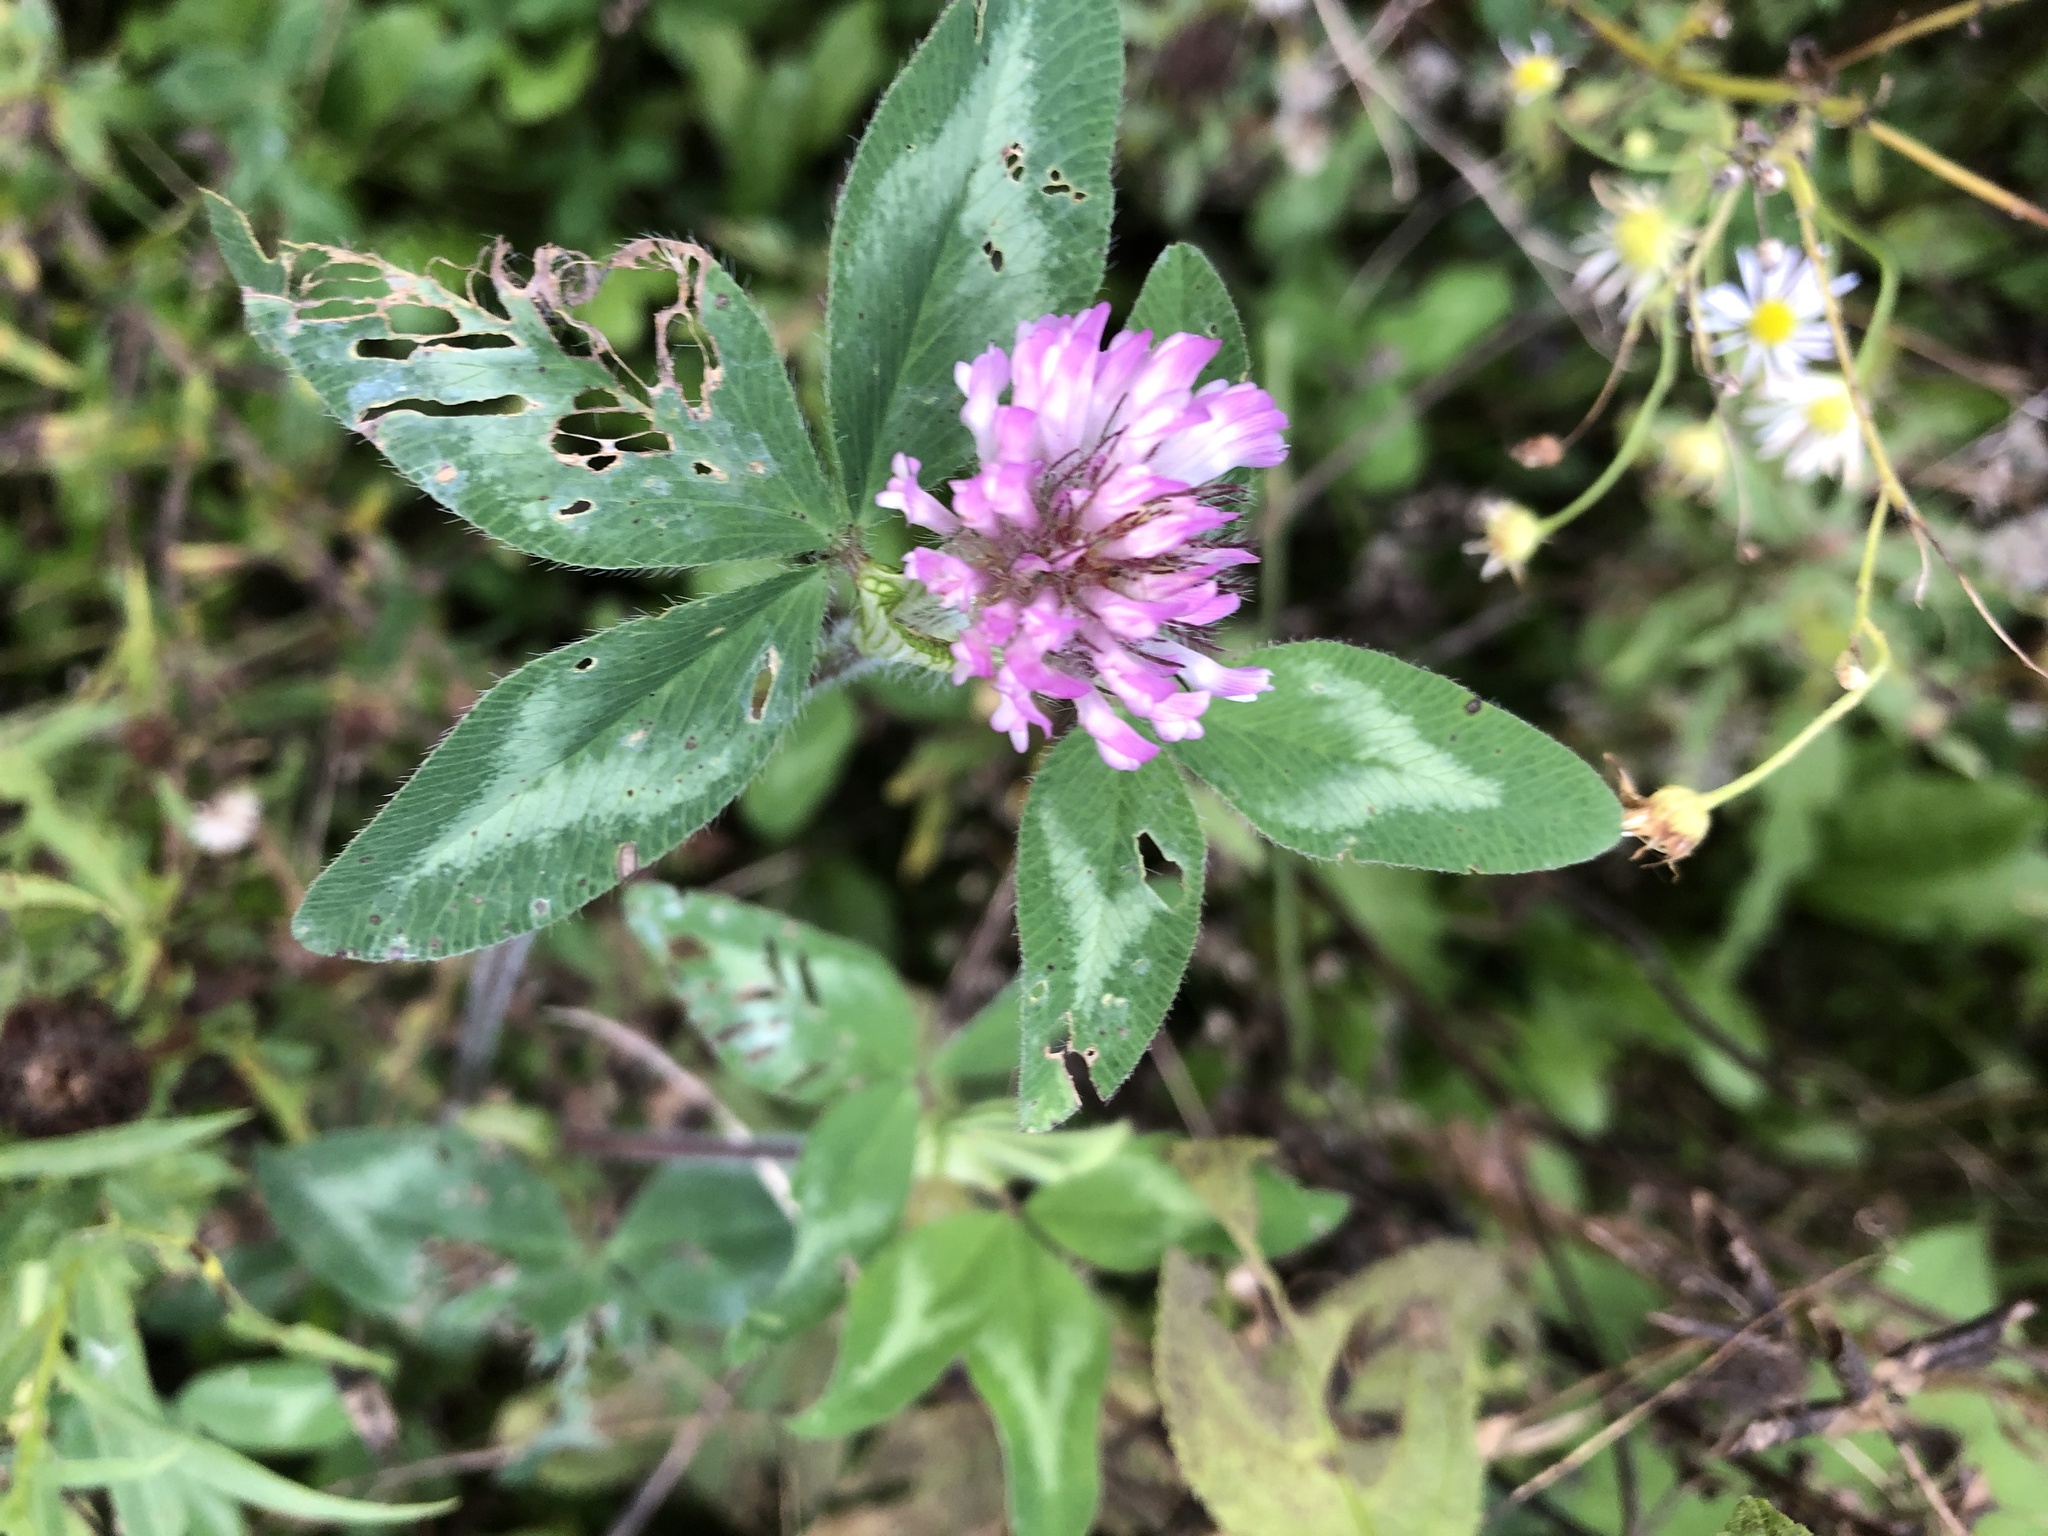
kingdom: Plantae
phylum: Tracheophyta
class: Magnoliopsida
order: Fabales
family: Fabaceae
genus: Trifolium
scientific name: Trifolium pratense
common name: Red clover
